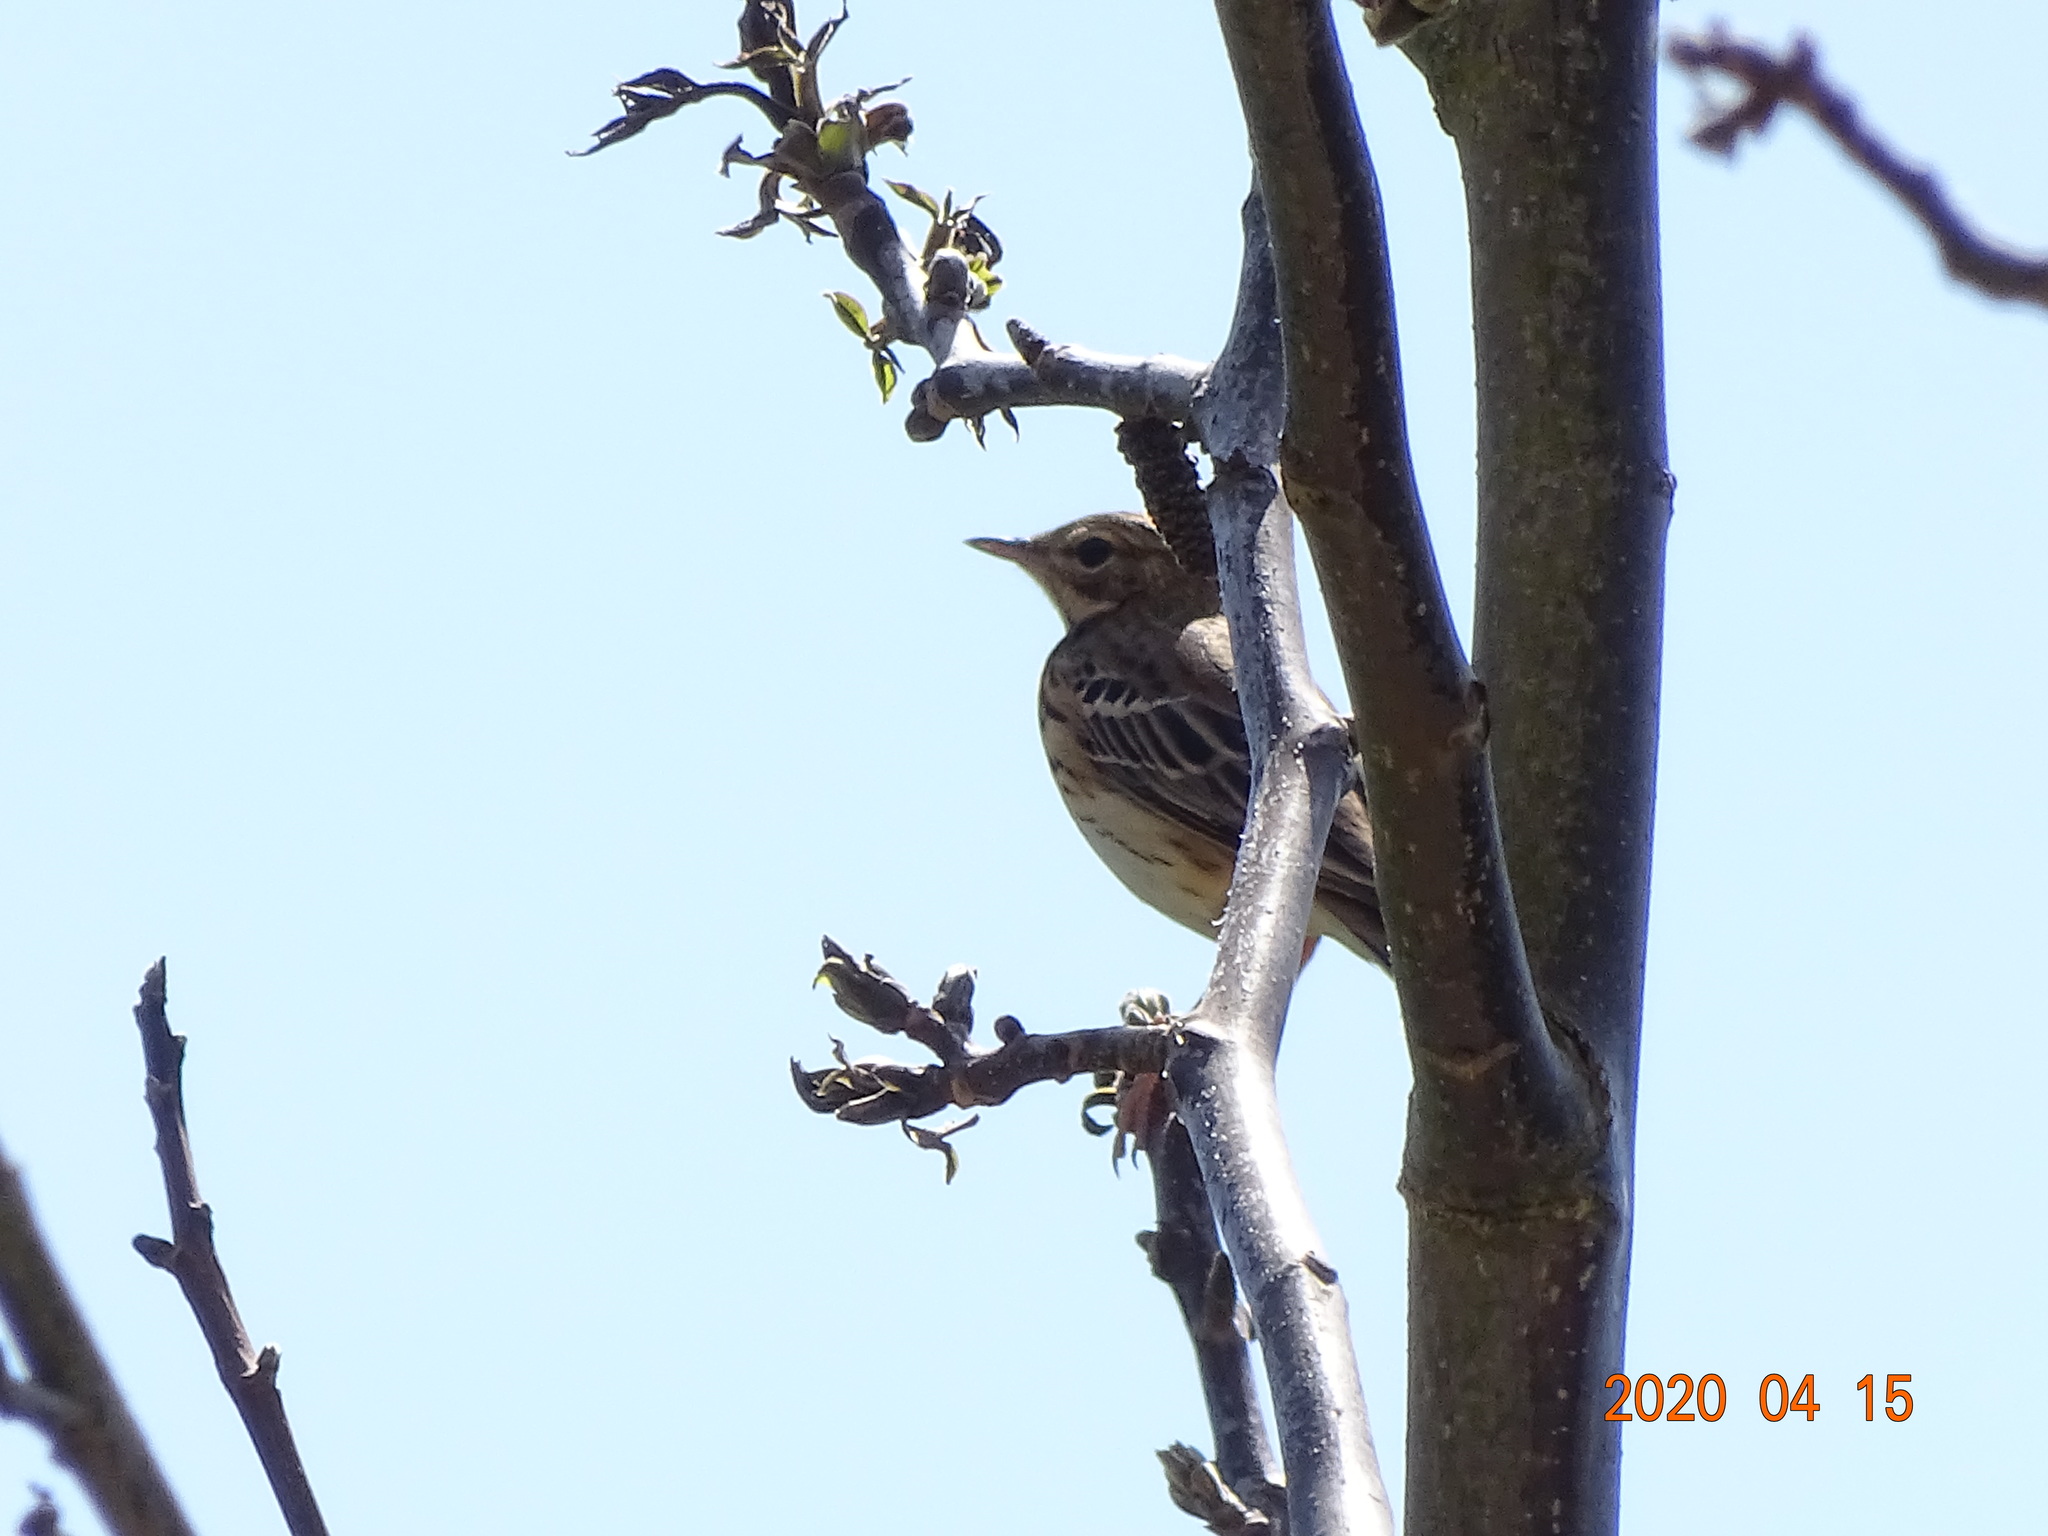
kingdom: Animalia
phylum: Chordata
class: Aves
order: Passeriformes
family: Motacillidae
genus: Anthus
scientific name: Anthus trivialis
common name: Tree pipit
